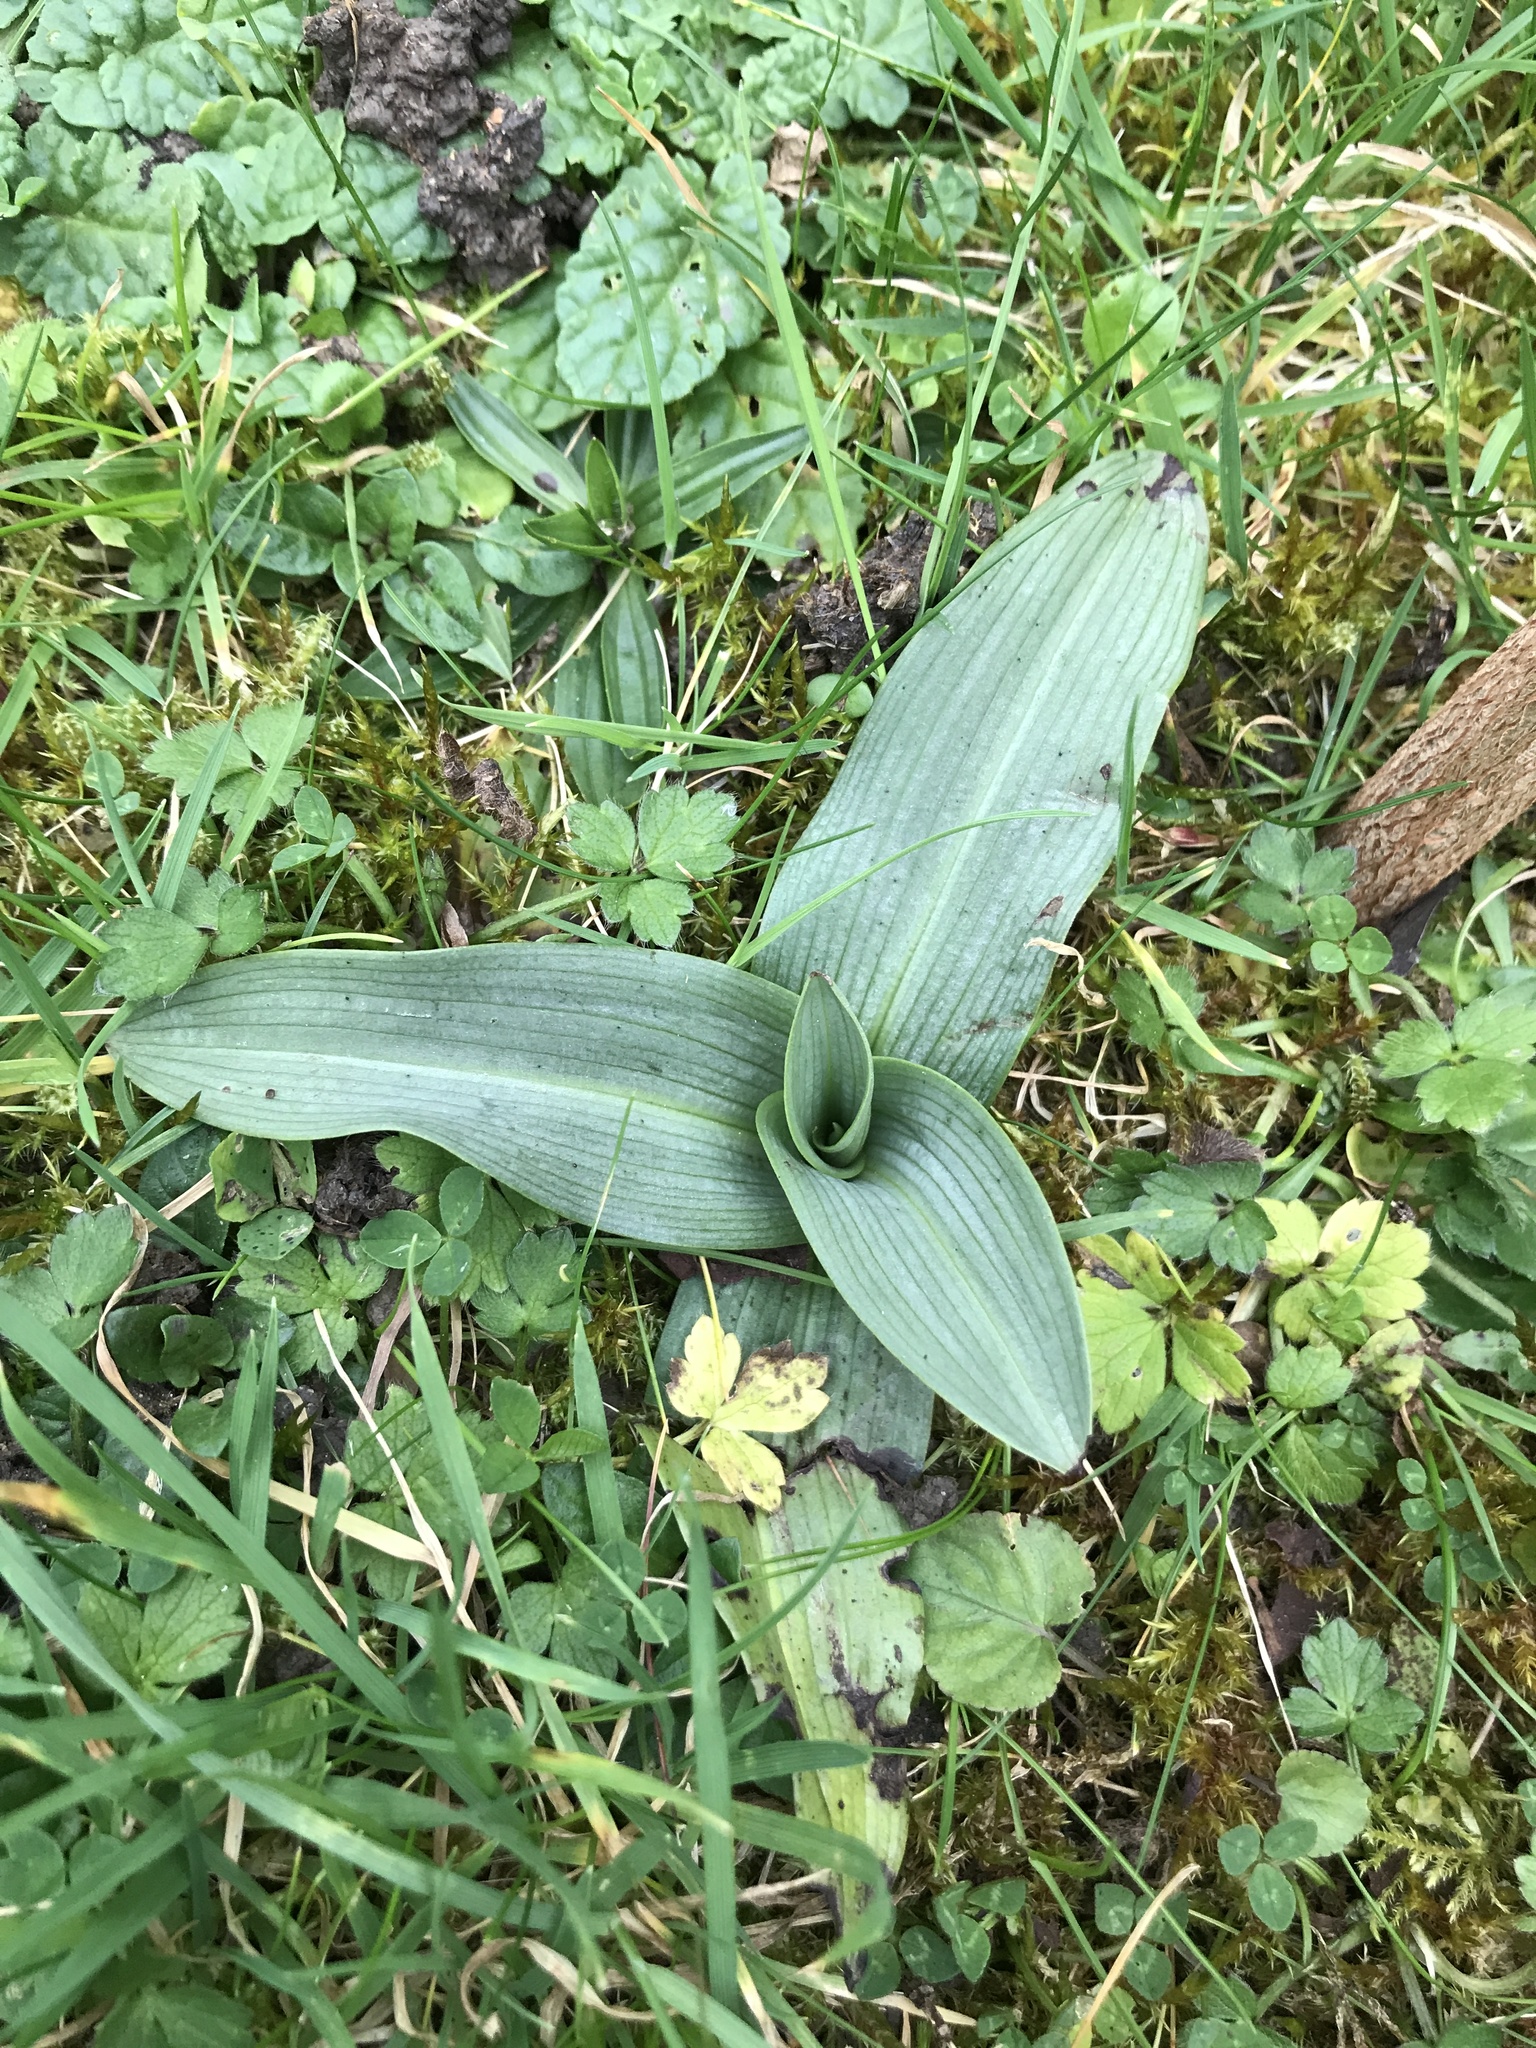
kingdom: Plantae
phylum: Tracheophyta
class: Liliopsida
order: Asparagales
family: Orchidaceae
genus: Ophrys
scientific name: Ophrys apifera
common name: Bee orchid
